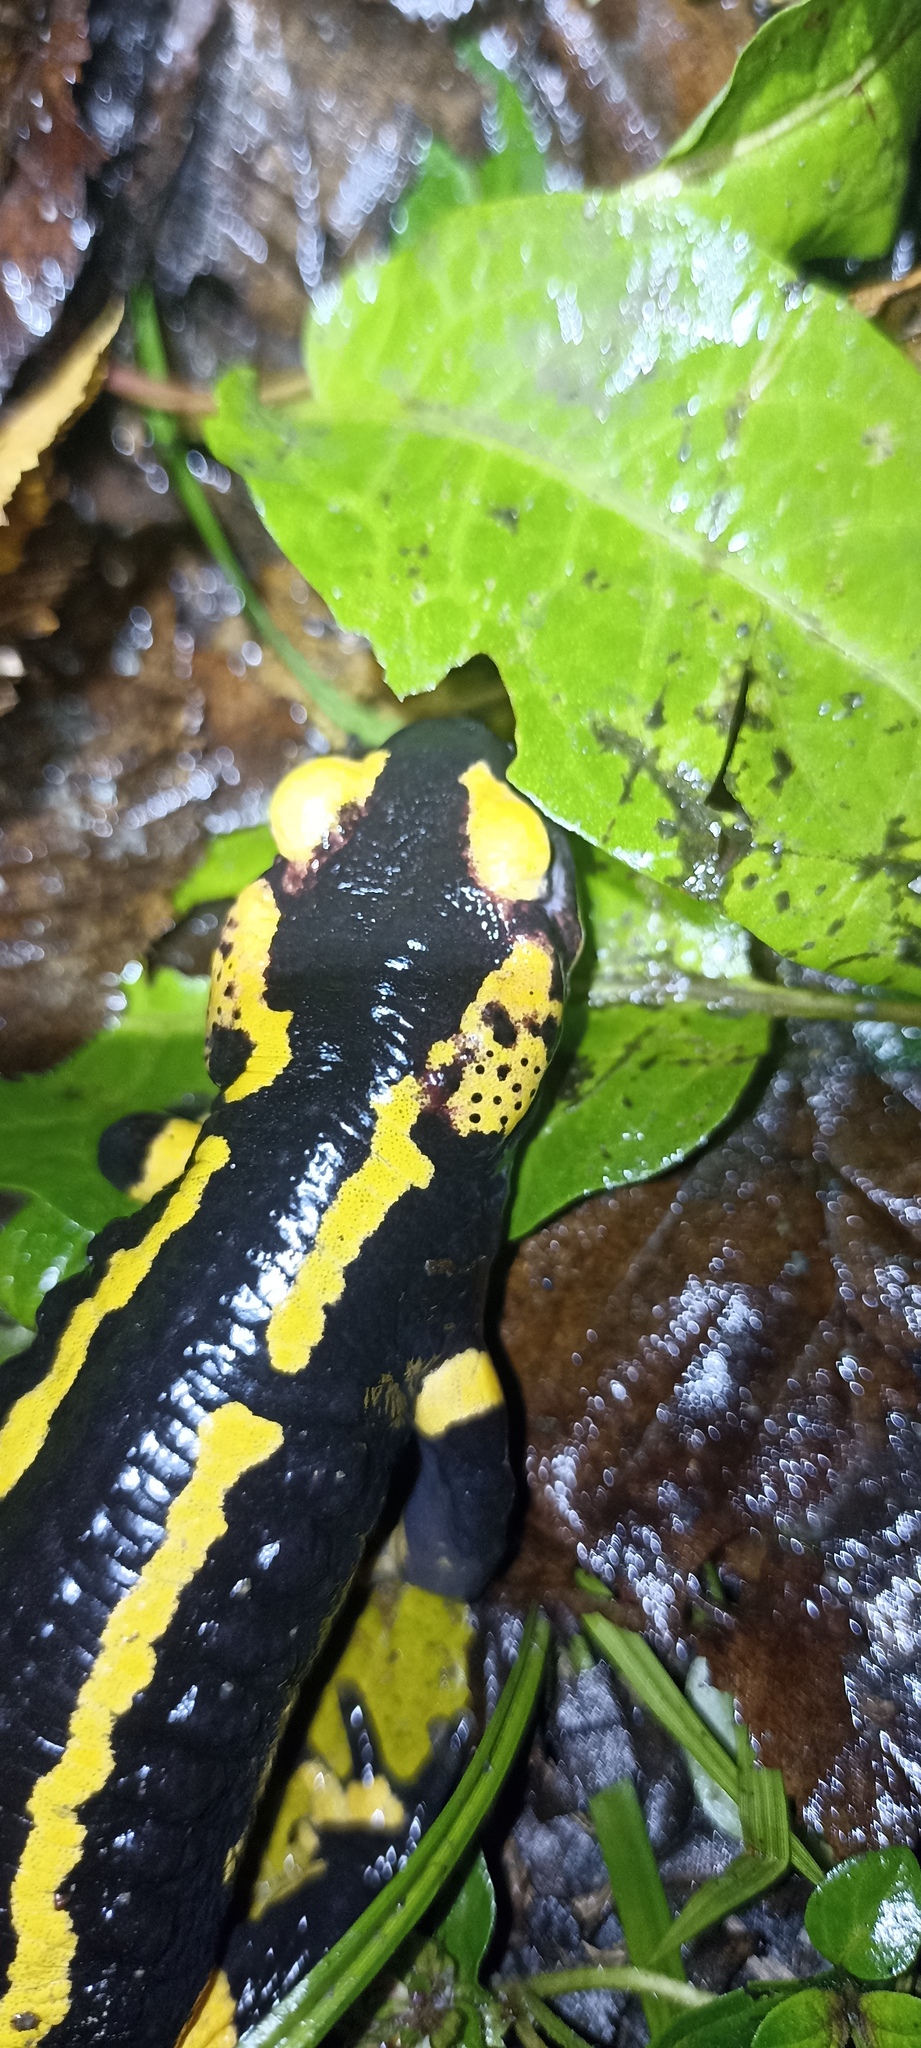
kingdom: Animalia
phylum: Chordata
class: Amphibia
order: Caudata
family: Salamandridae
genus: Salamandra
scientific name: Salamandra salamandra
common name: Fire salamander
